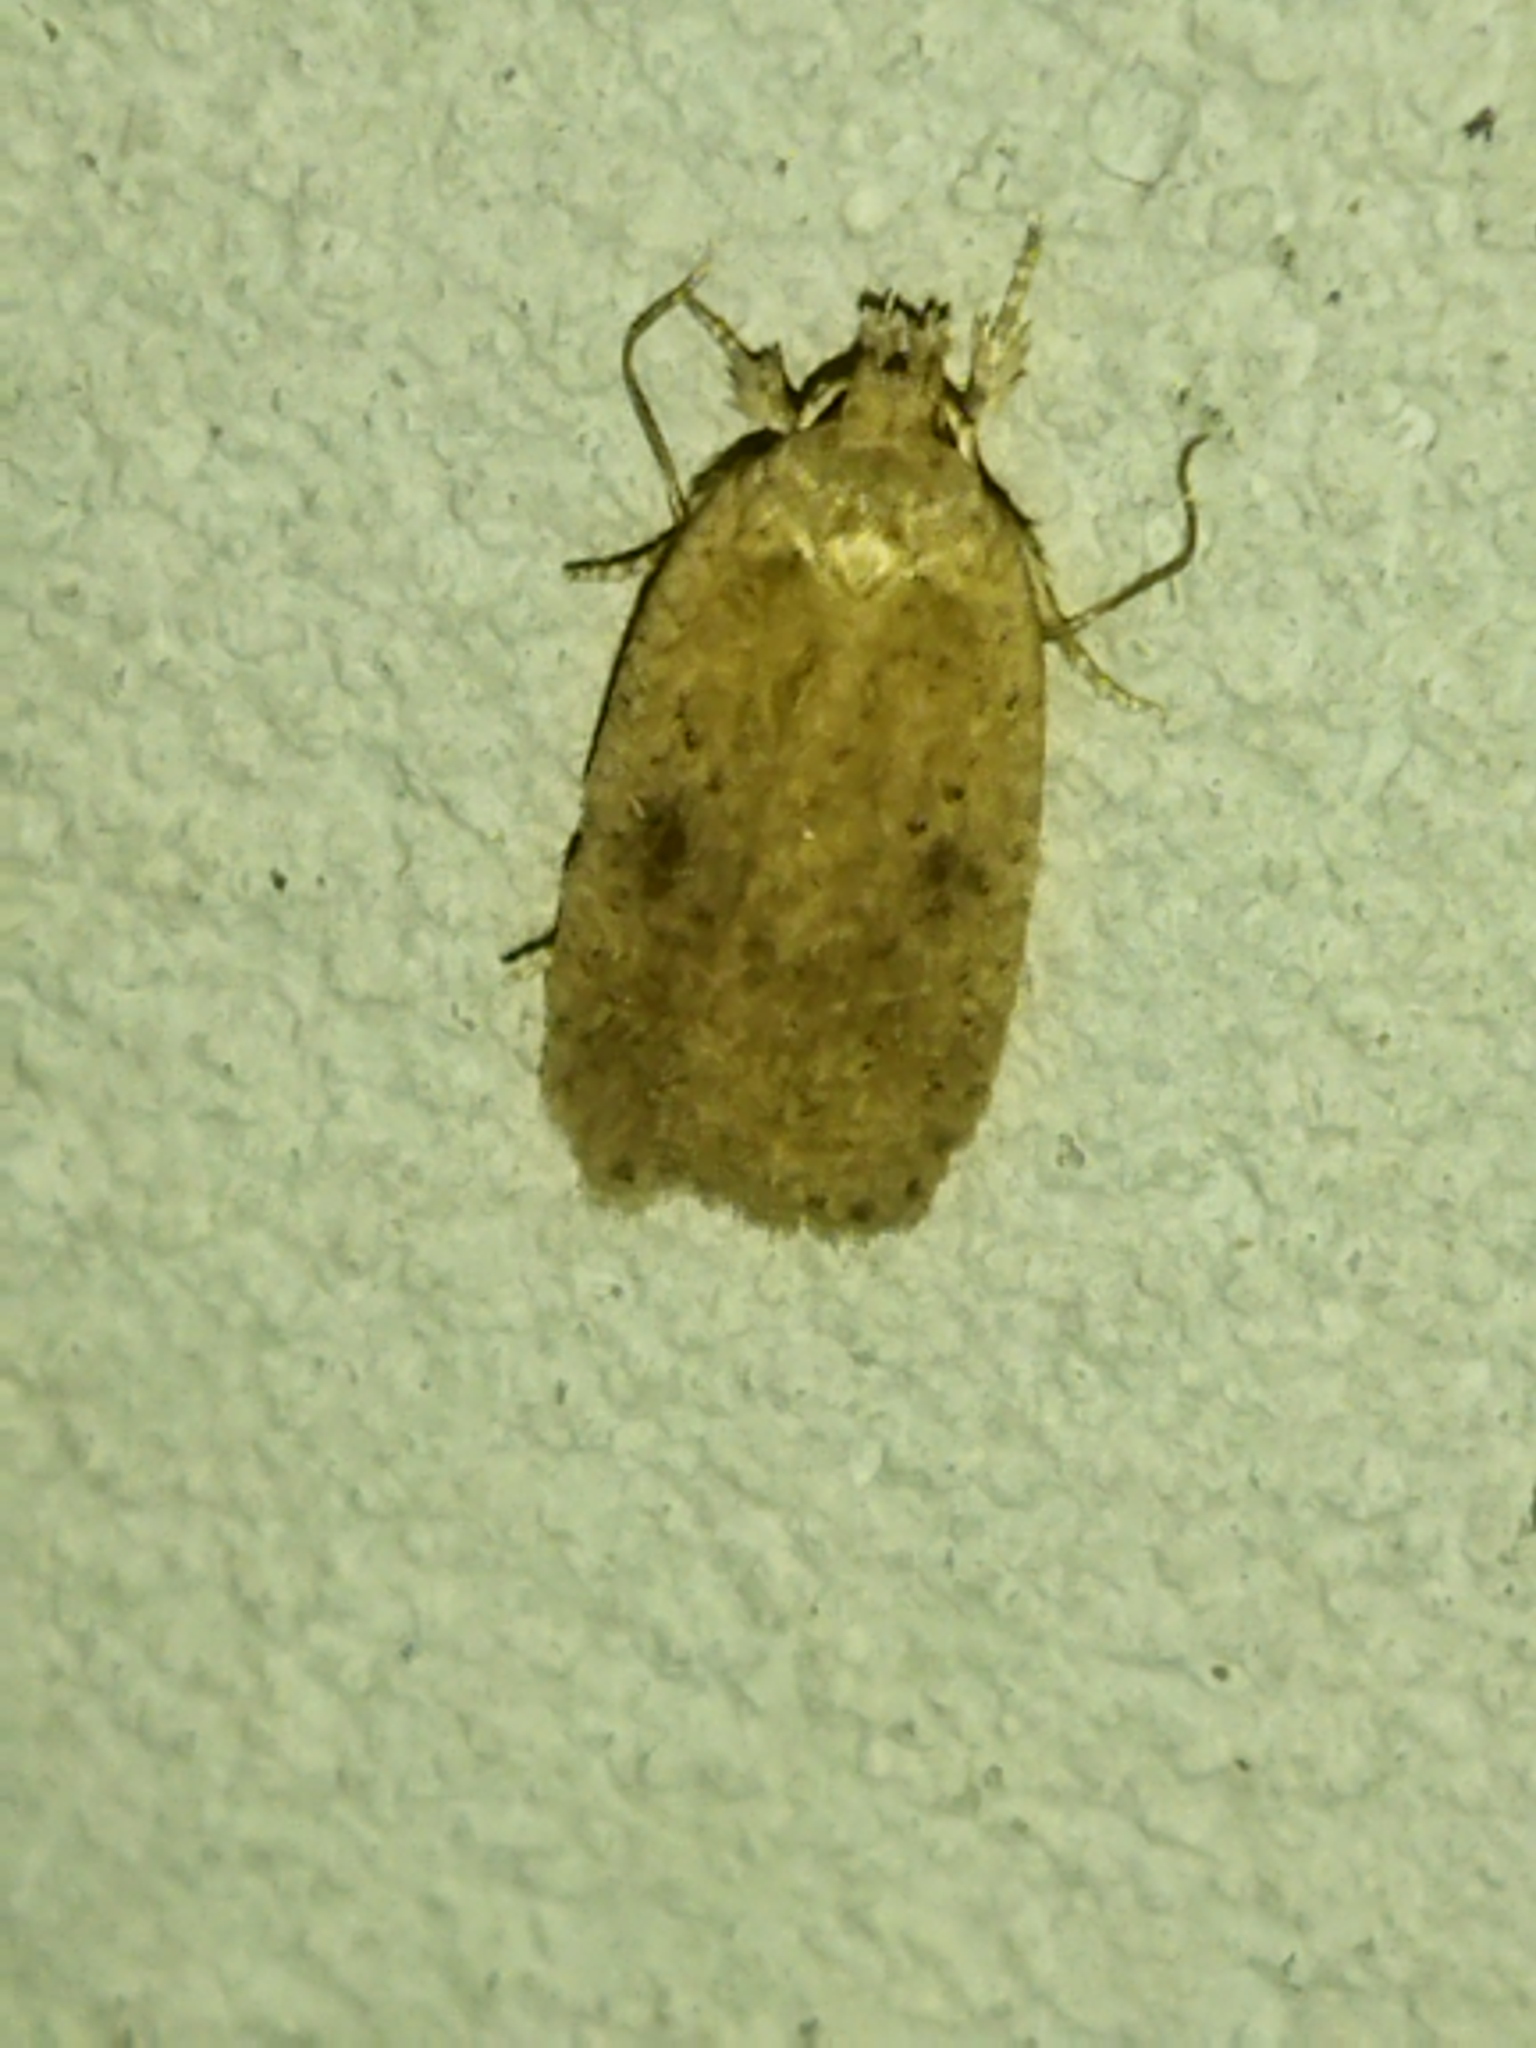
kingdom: Animalia
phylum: Arthropoda
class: Insecta
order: Lepidoptera
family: Depressariidae
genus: Agonopterix
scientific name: Agonopterix arenella
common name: Brindled flat-body
